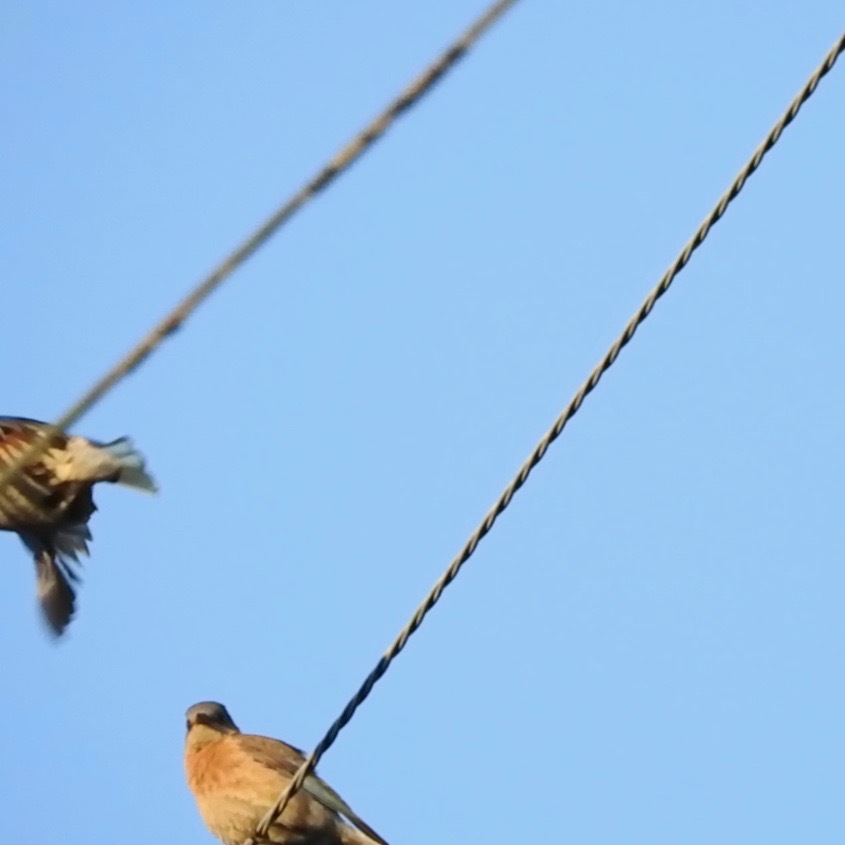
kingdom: Animalia
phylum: Chordata
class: Aves
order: Passeriformes
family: Turdidae
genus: Sialia
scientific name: Sialia mexicana
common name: Western bluebird
